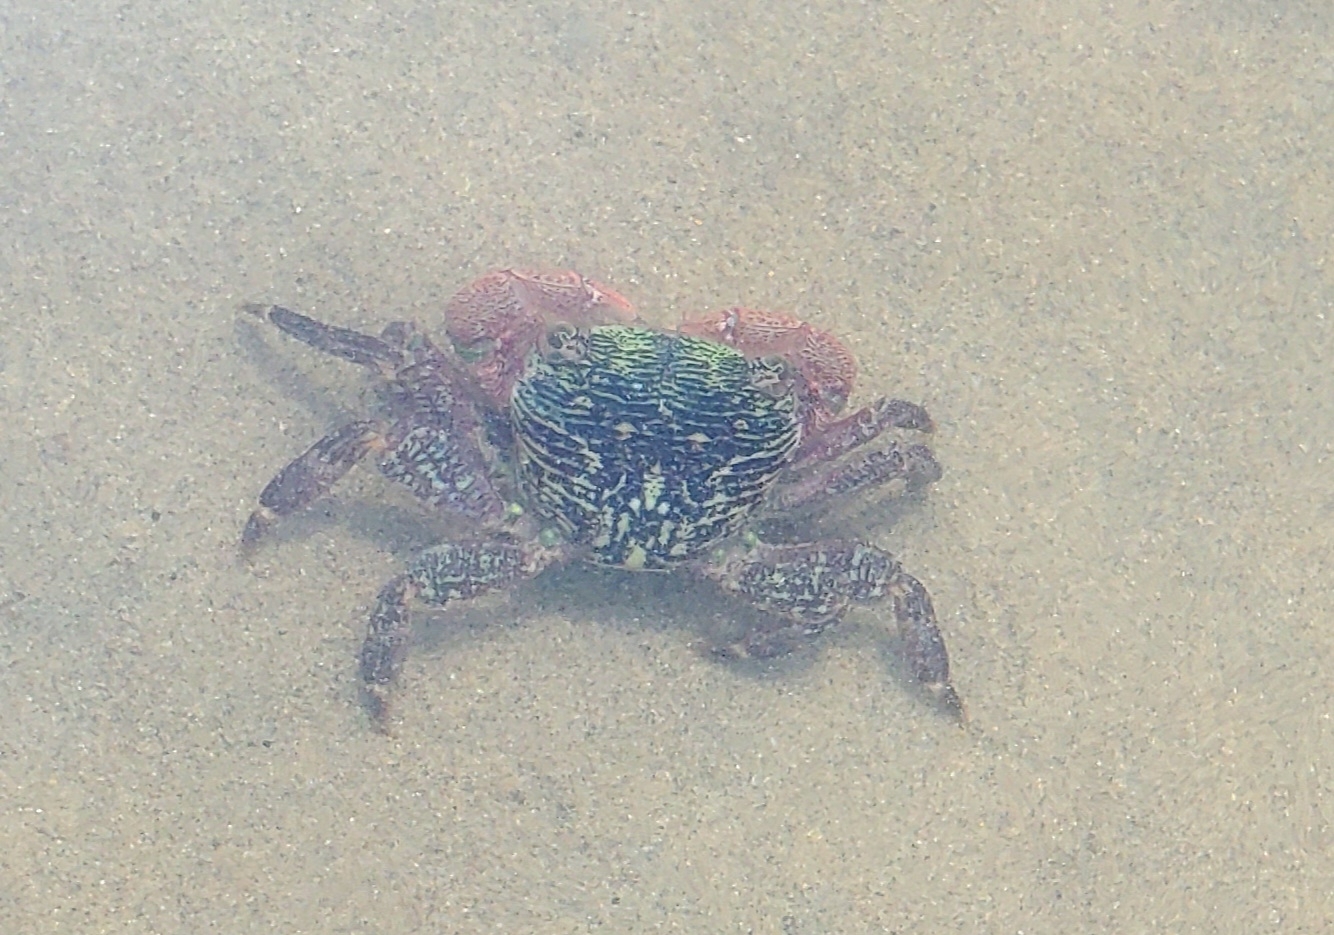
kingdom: Animalia
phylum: Arthropoda
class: Malacostraca
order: Decapoda
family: Grapsidae
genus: Pachygrapsus
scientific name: Pachygrapsus crassipes
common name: Striped shore crab
